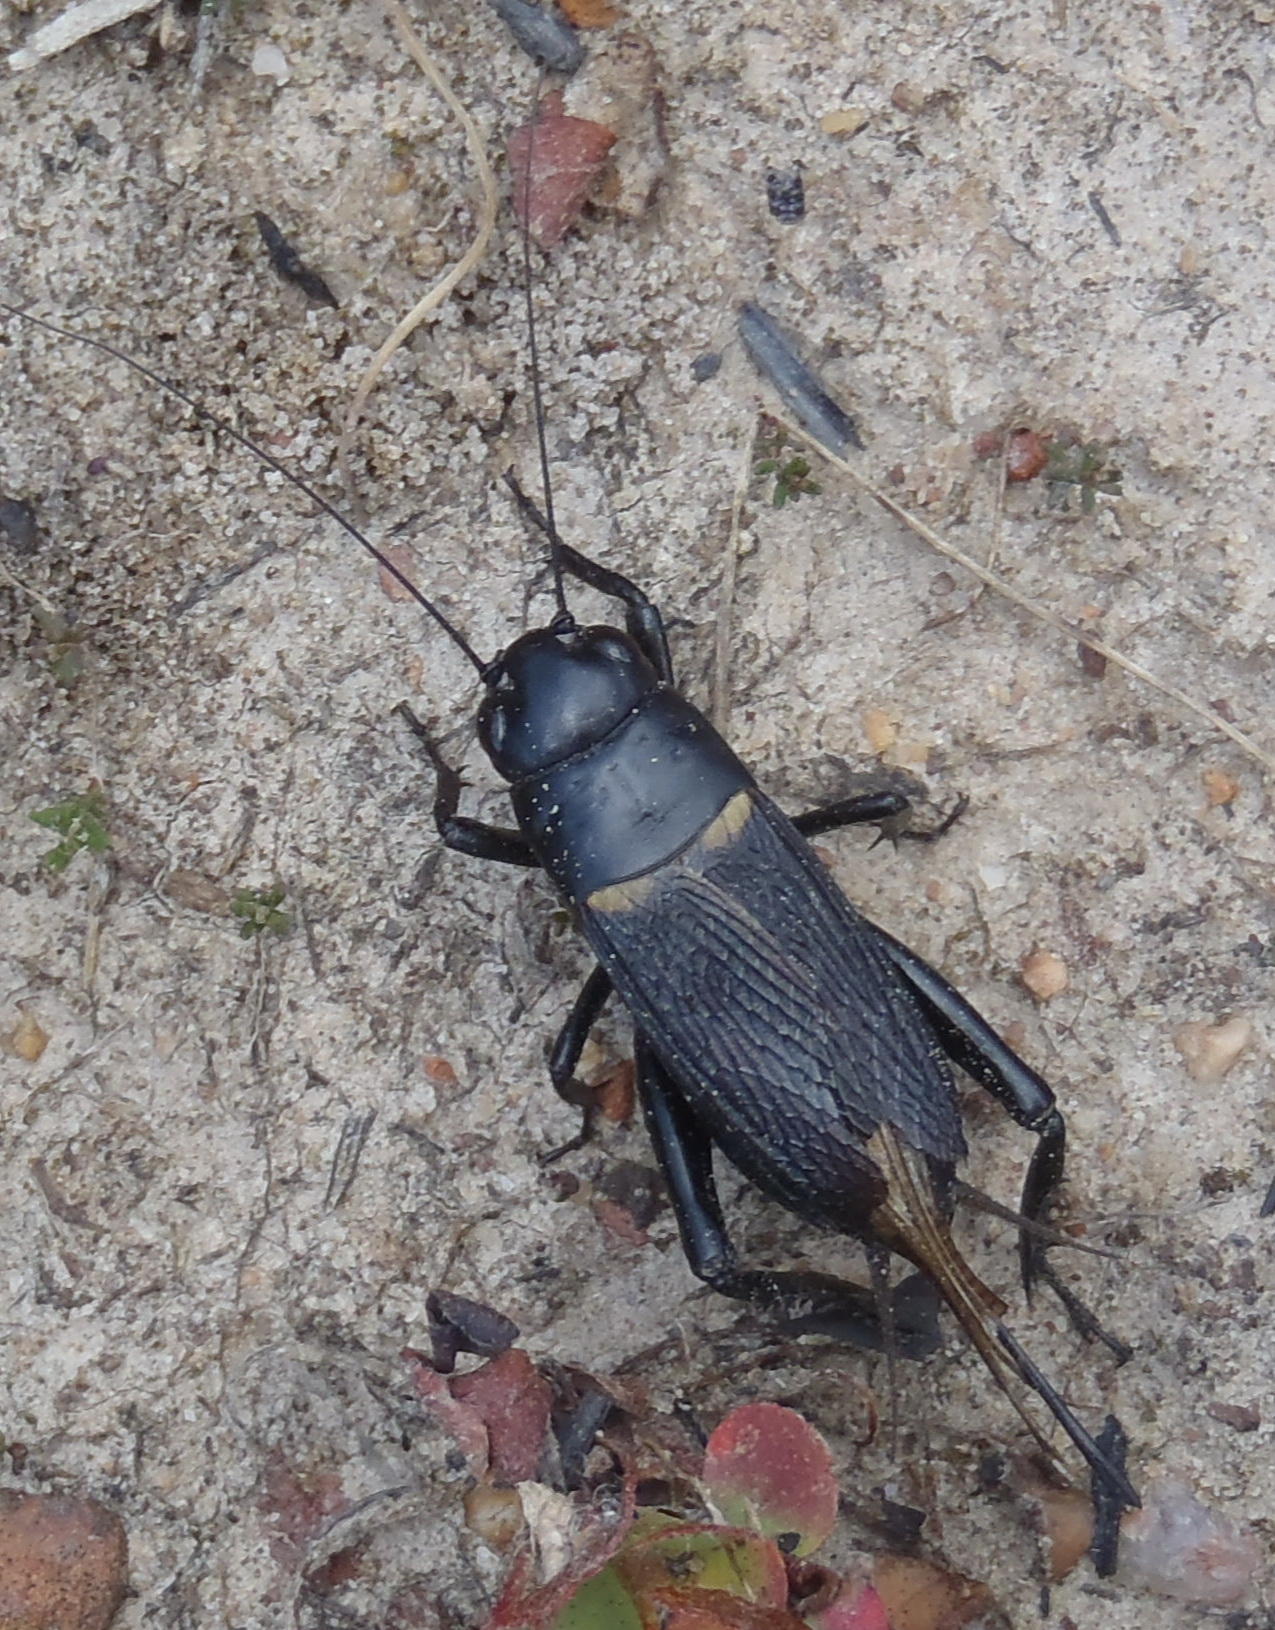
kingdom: Animalia
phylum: Arthropoda
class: Insecta
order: Orthoptera
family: Gryllidae
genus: Gryllus
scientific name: Gryllus bimaculatus
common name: Two-spotted cricket
